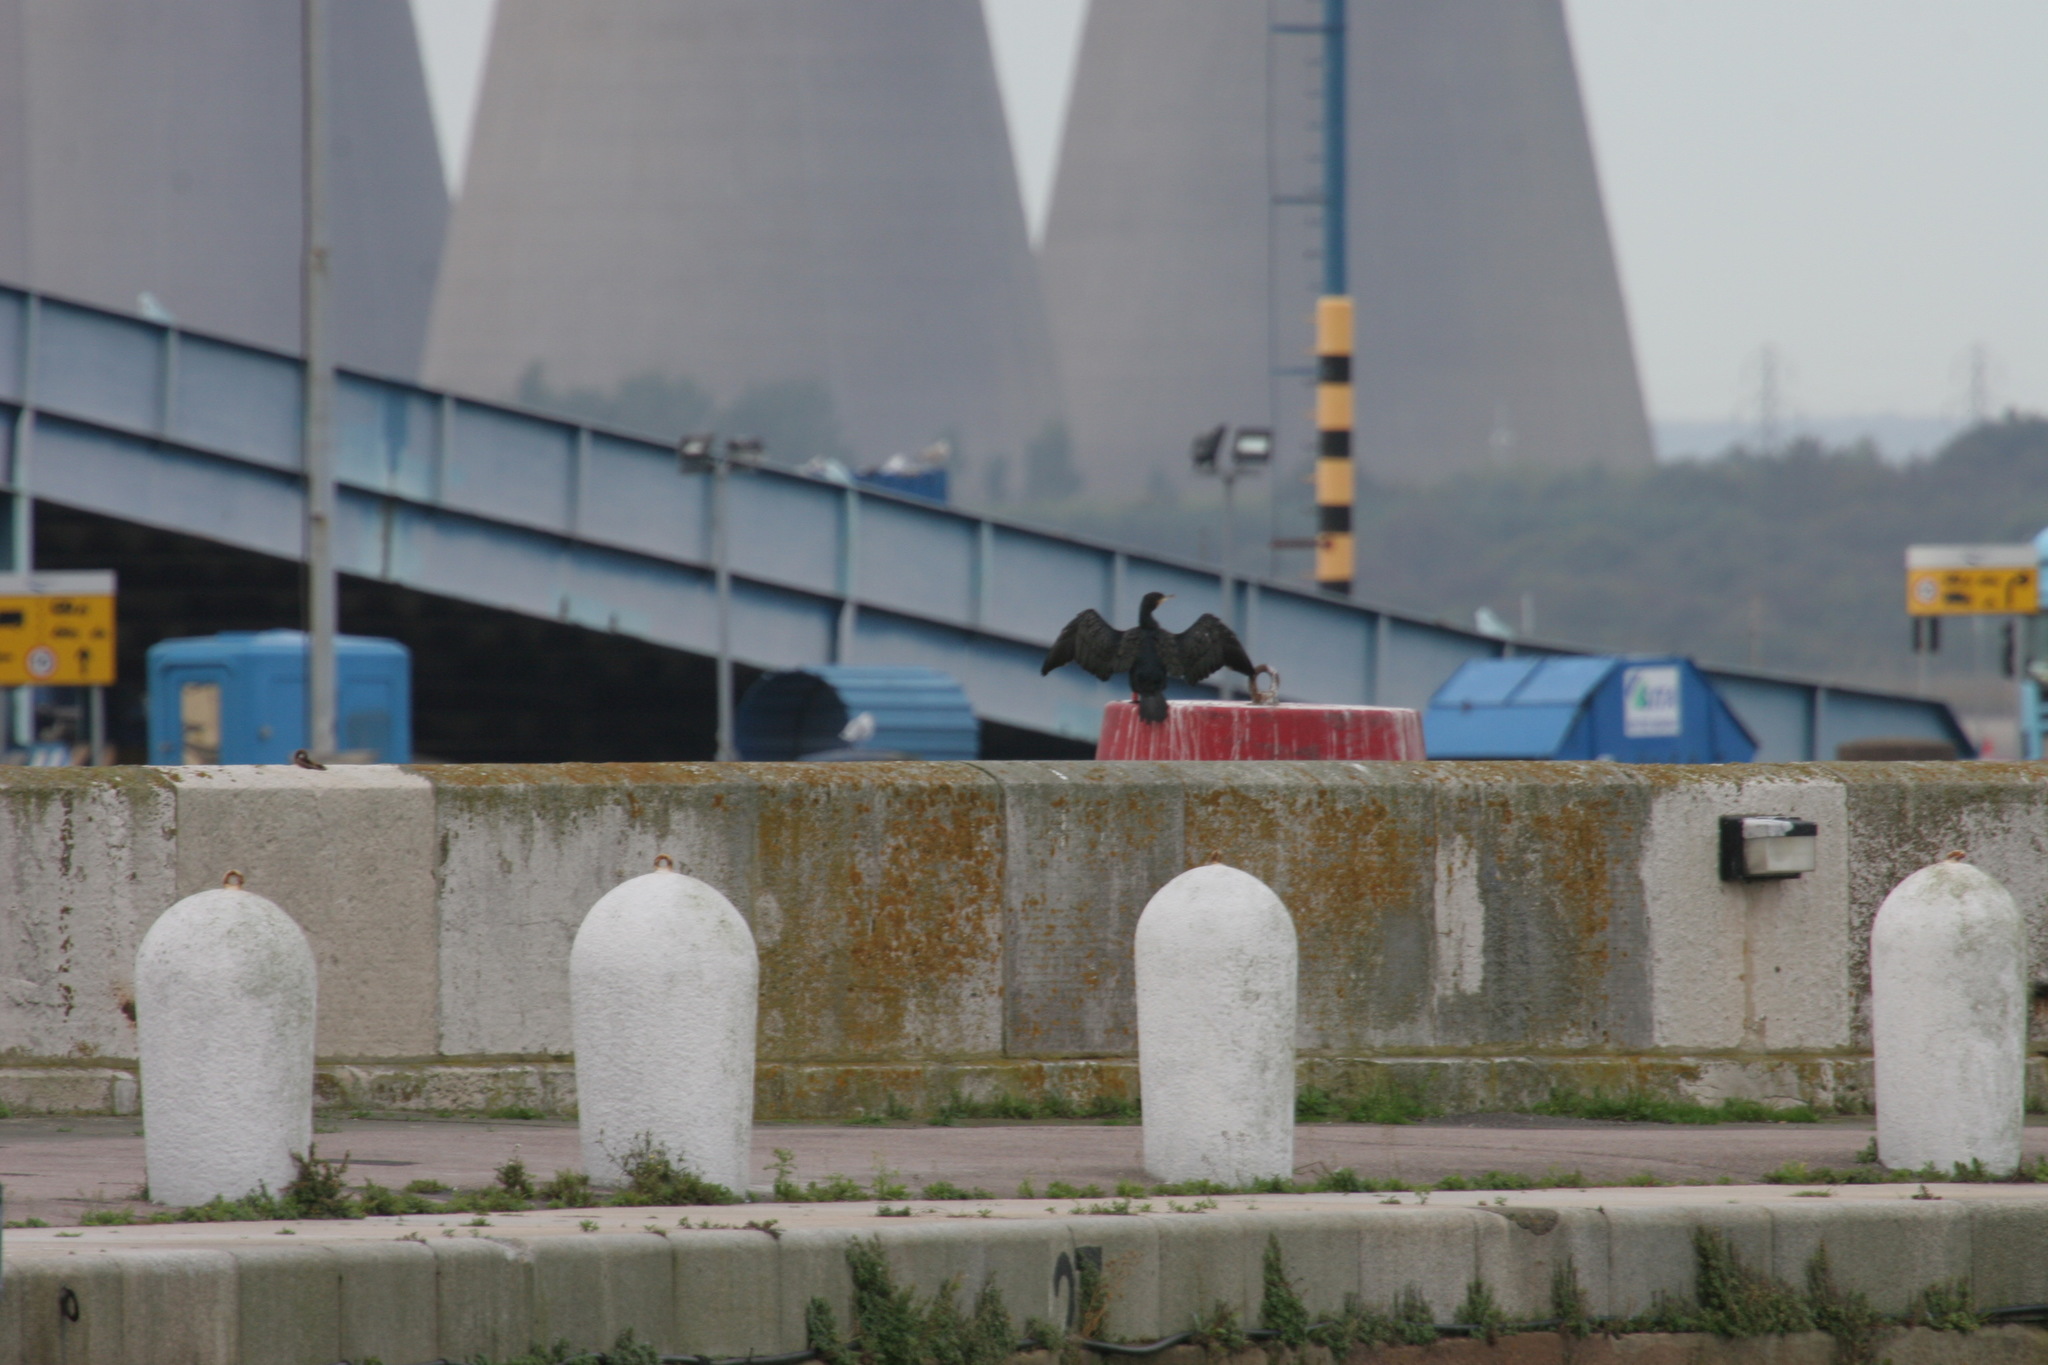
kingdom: Animalia
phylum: Chordata
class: Aves
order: Suliformes
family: Phalacrocoracidae
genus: Phalacrocorax
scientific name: Phalacrocorax carbo
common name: Great cormorant
